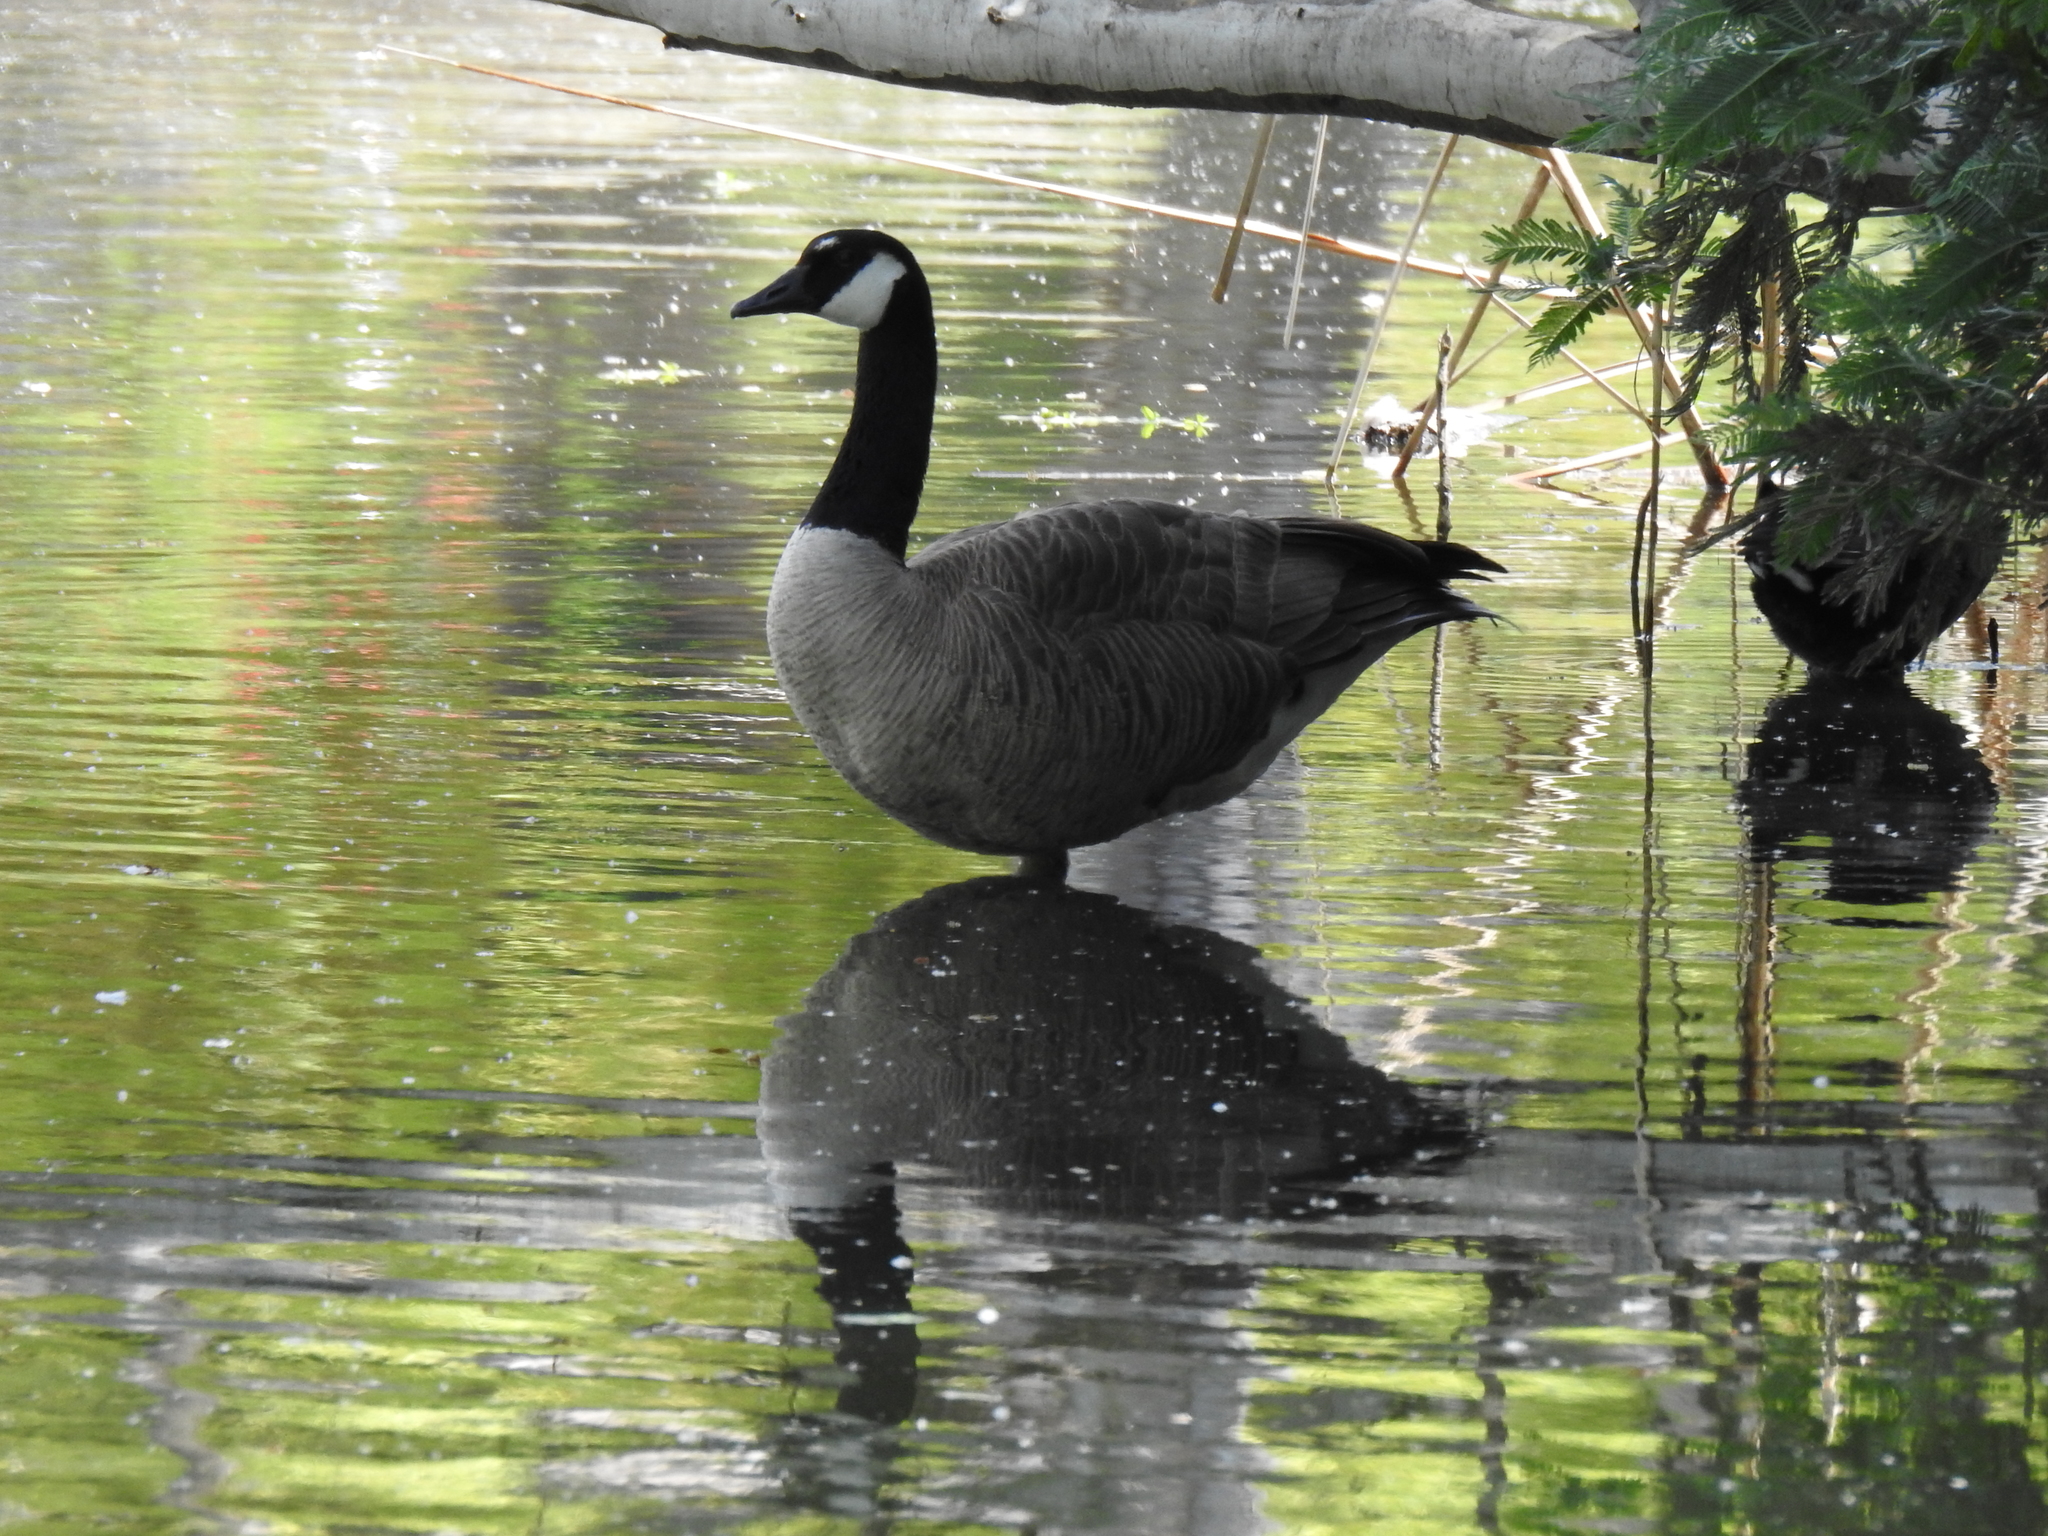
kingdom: Animalia
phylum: Chordata
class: Aves
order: Anseriformes
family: Anatidae
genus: Branta
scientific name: Branta canadensis
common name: Canada goose
